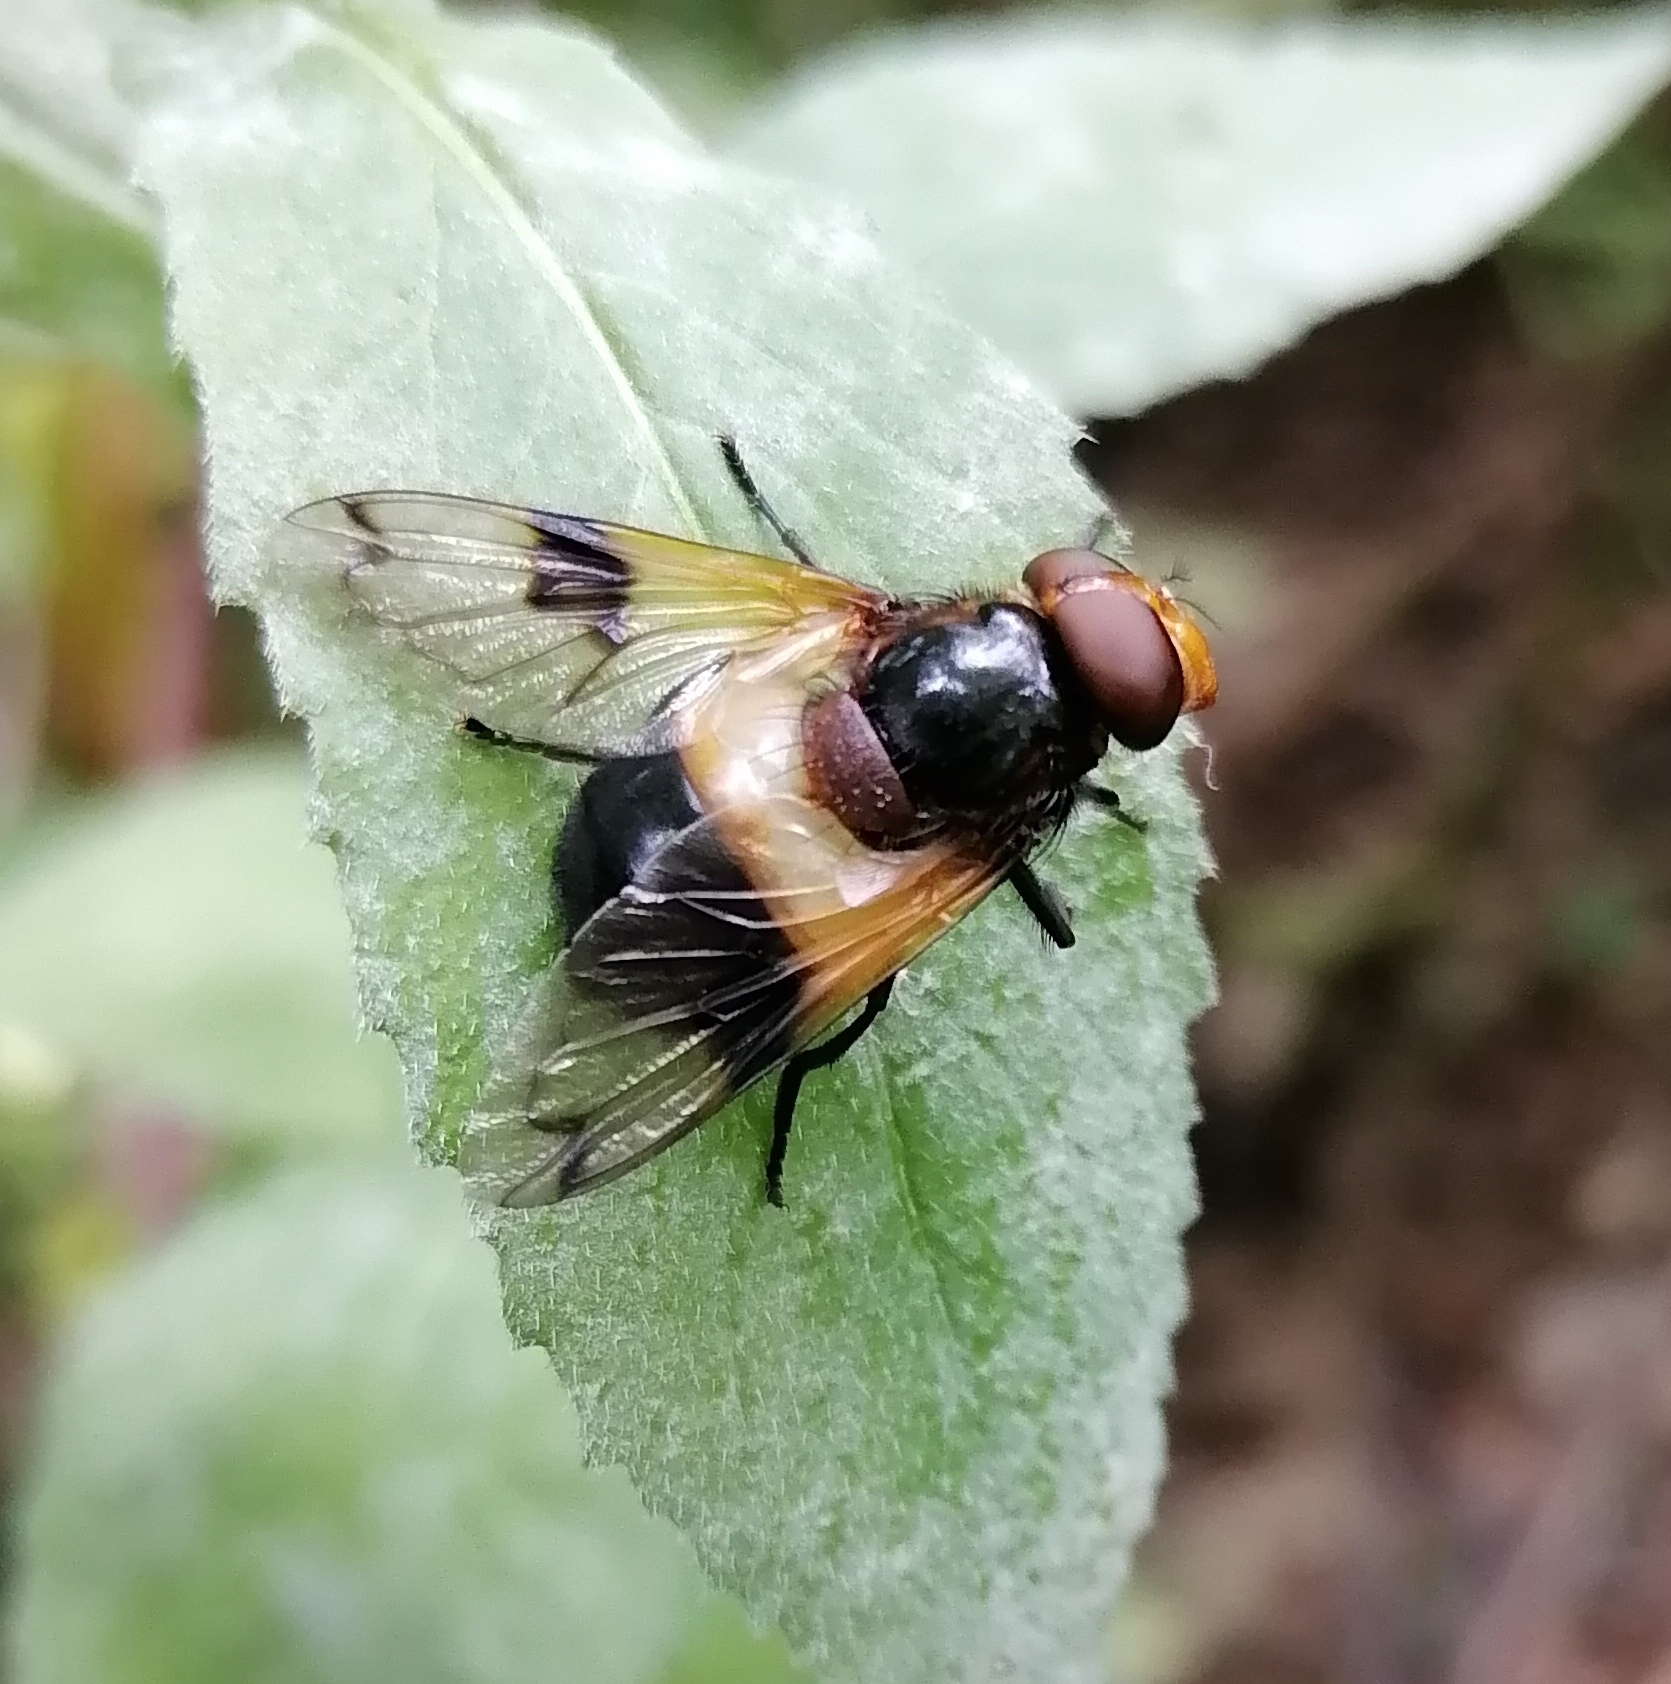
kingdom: Animalia
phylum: Arthropoda
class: Insecta
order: Diptera
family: Syrphidae
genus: Volucella
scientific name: Volucella pellucens
